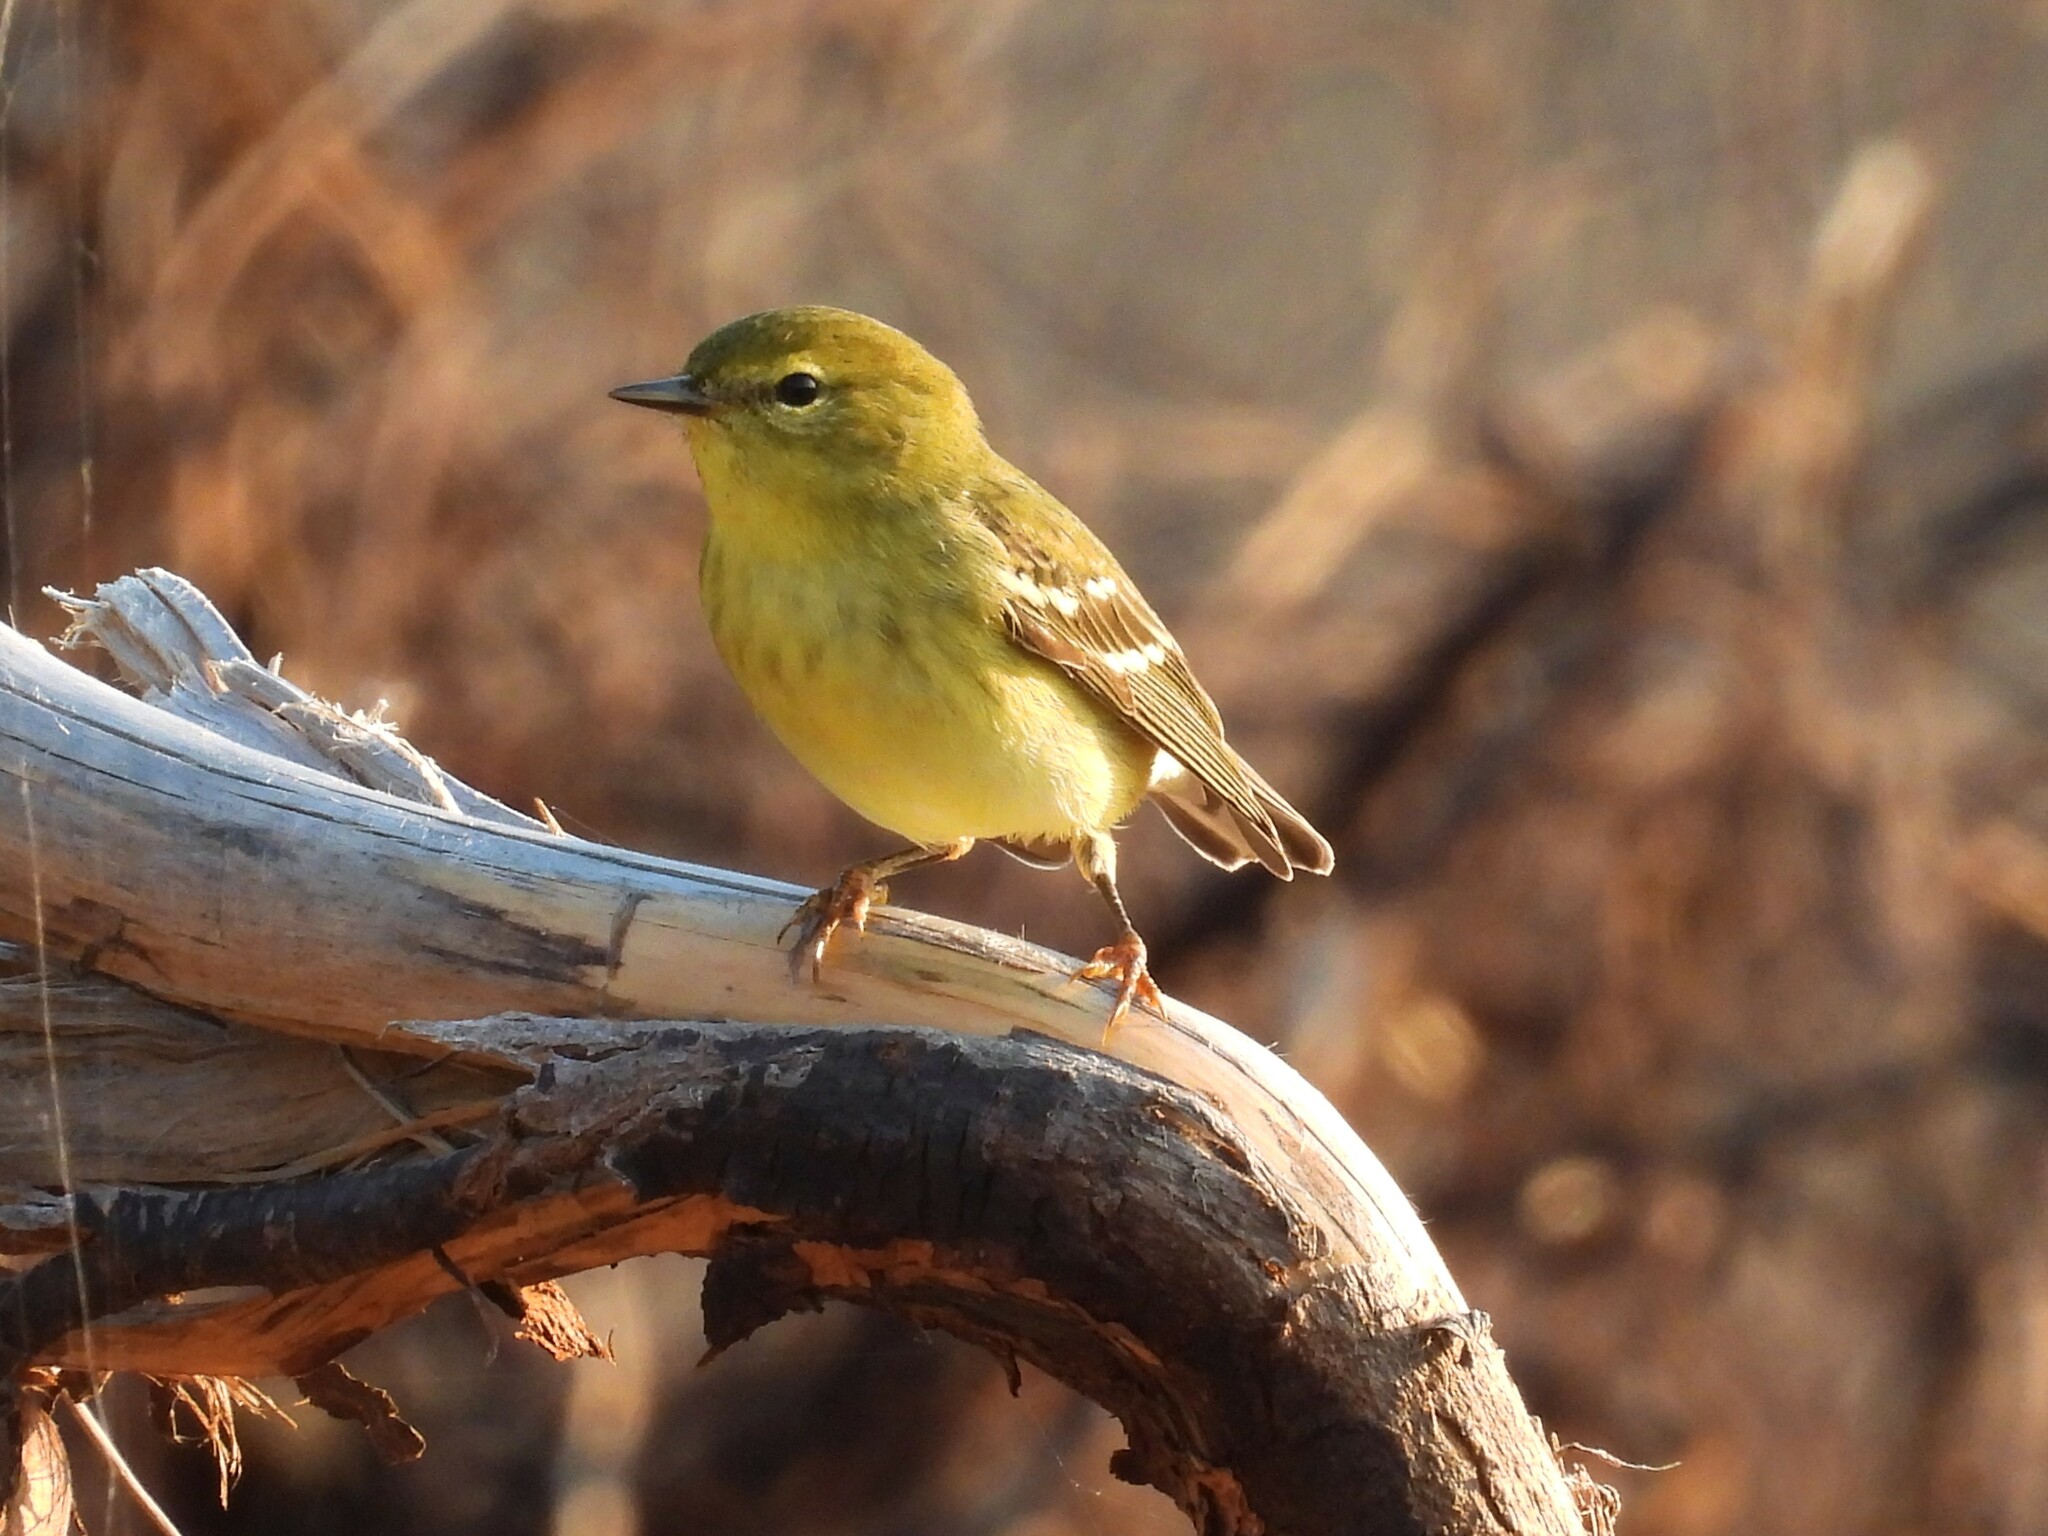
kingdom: Animalia
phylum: Chordata
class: Aves
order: Passeriformes
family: Parulidae
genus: Setophaga
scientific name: Setophaga striata
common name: Blackpoll warbler
